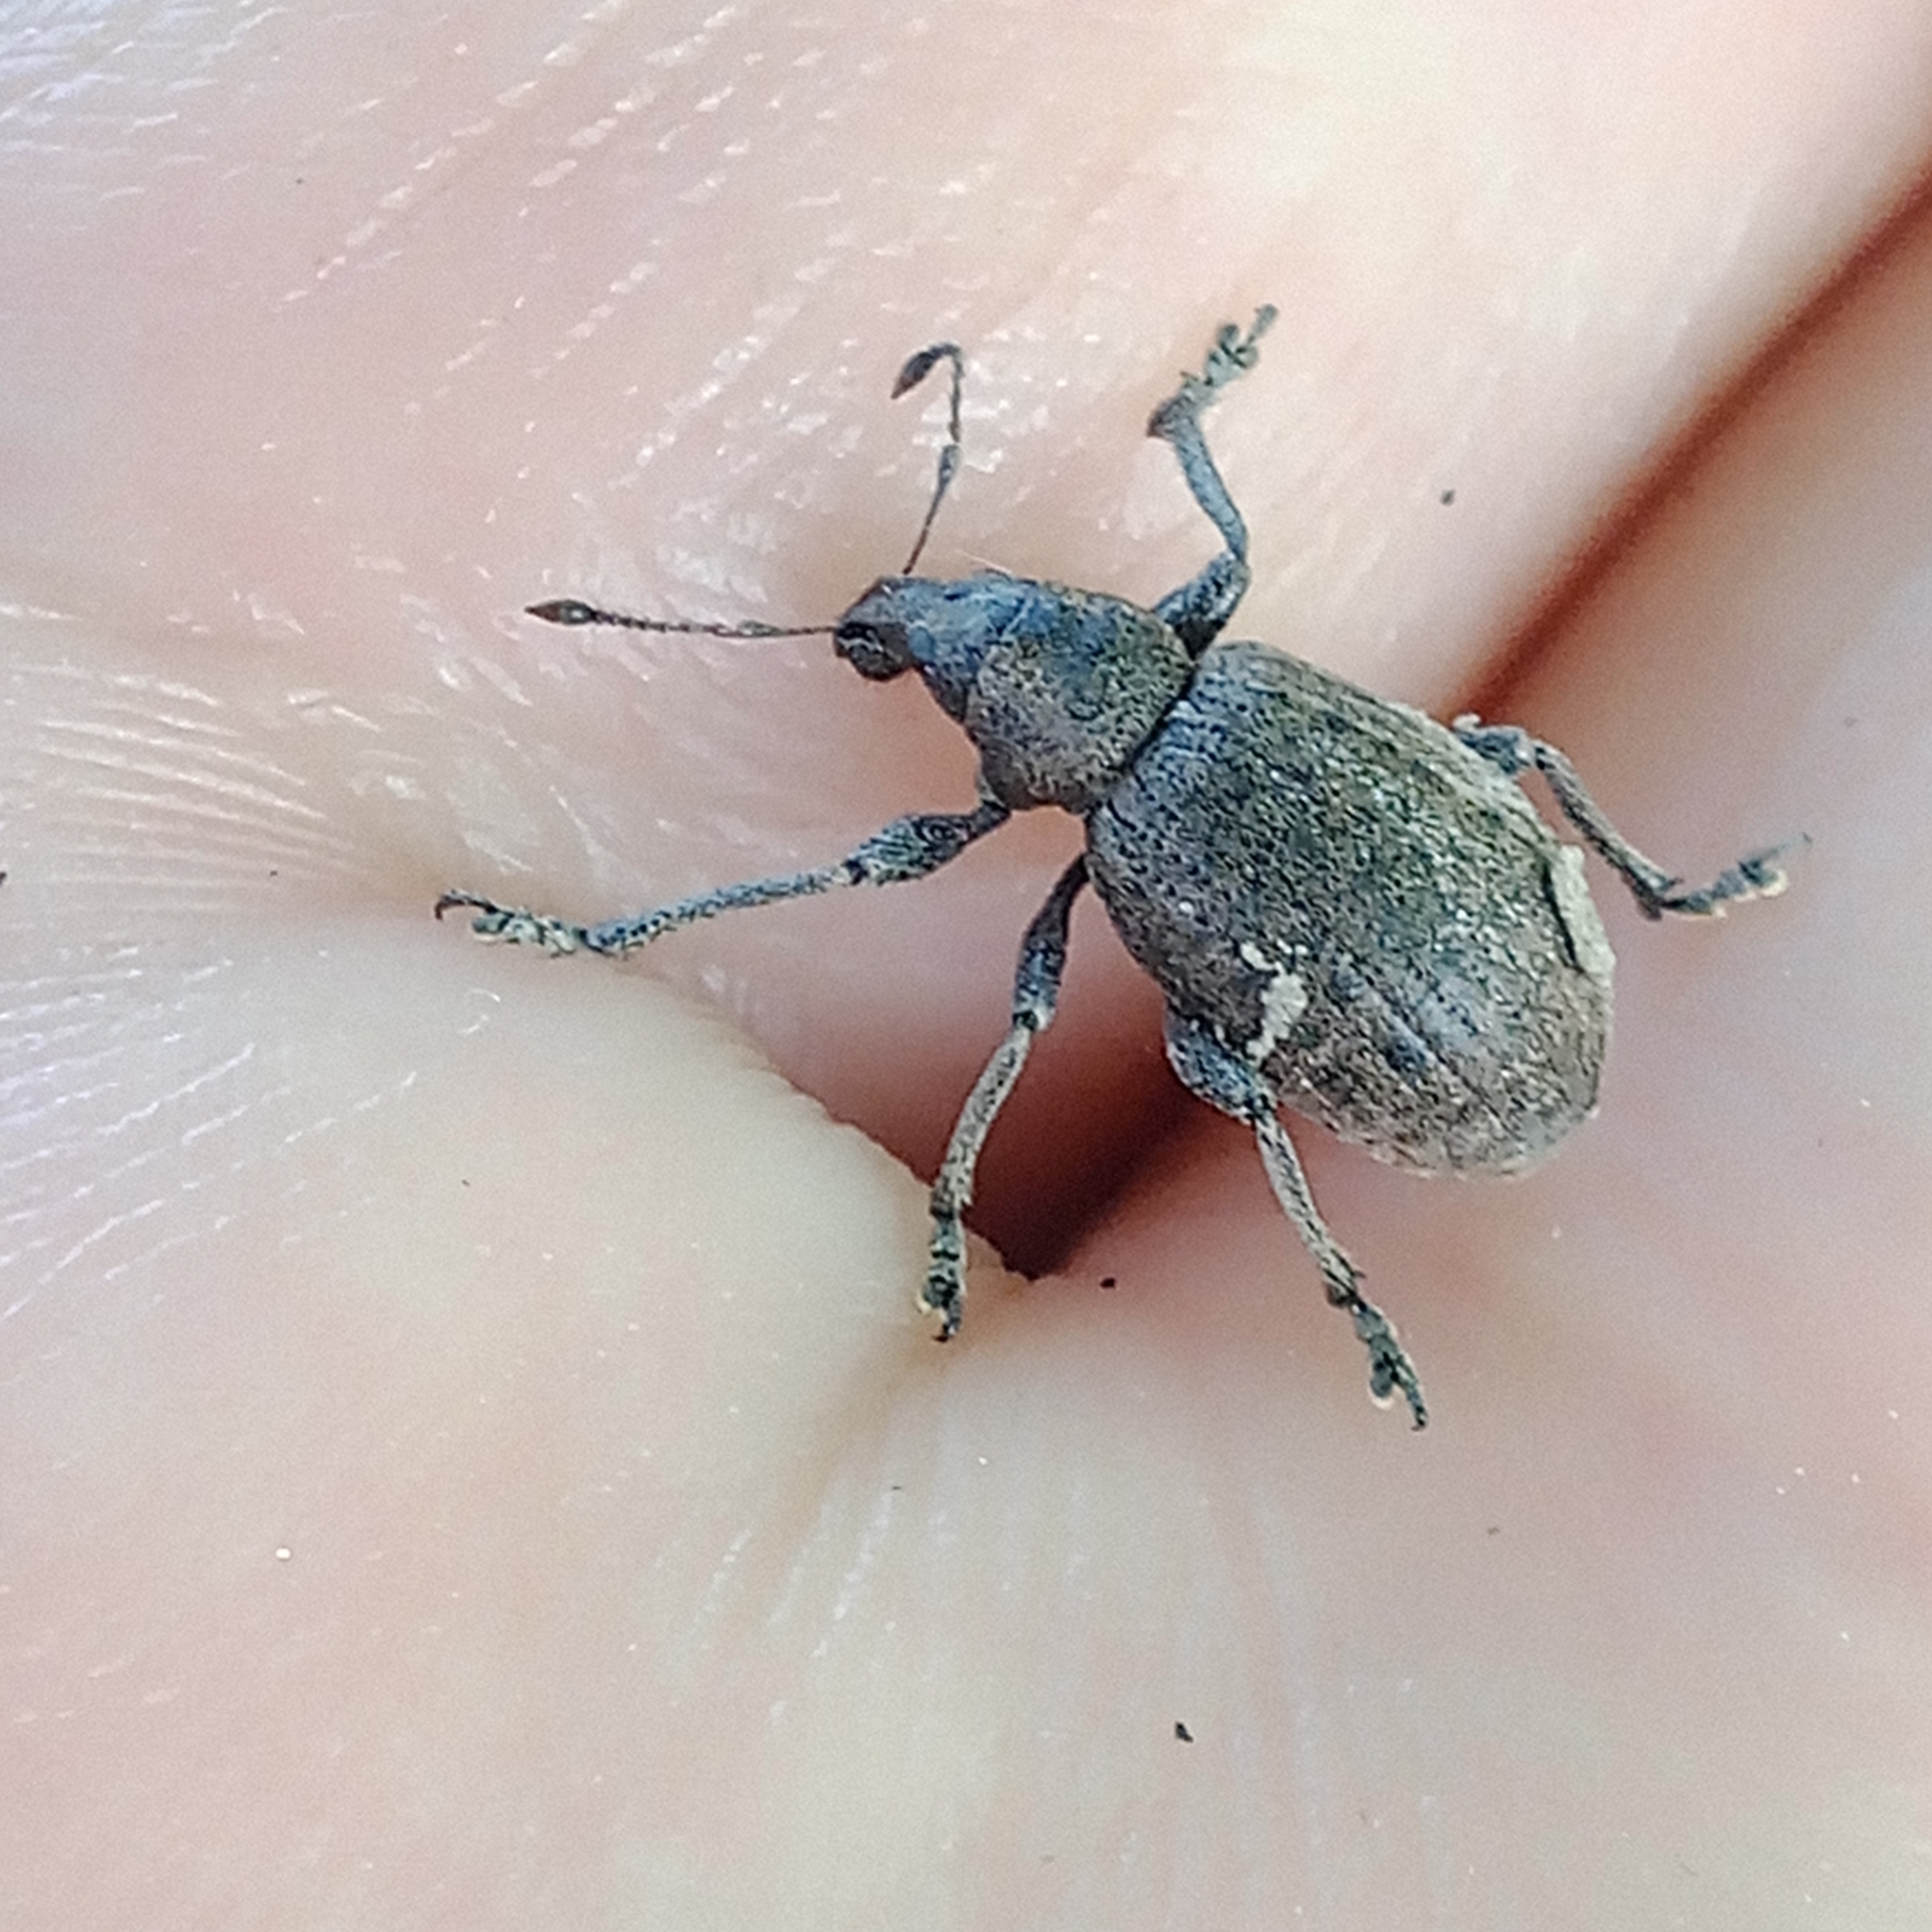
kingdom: Animalia
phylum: Arthropoda
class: Insecta
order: Coleoptera
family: Curculionidae
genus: Liophloeus
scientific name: Liophloeus tessulatus
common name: Weevil
